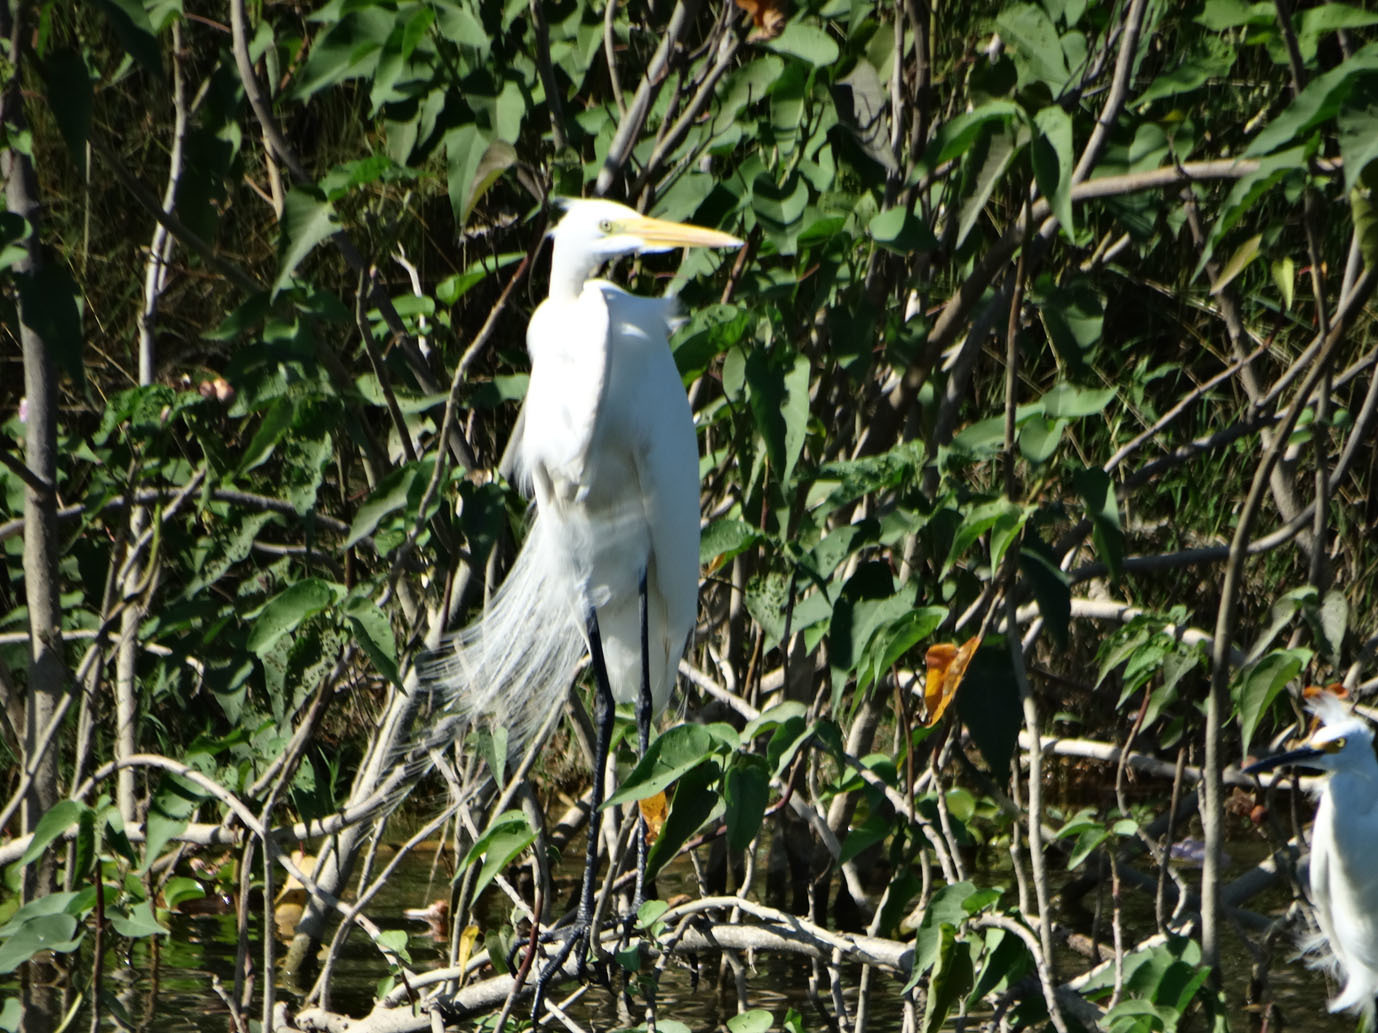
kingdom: Animalia
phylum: Chordata
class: Aves
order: Pelecaniformes
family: Ardeidae
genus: Ardea
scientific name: Ardea alba
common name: Great egret
